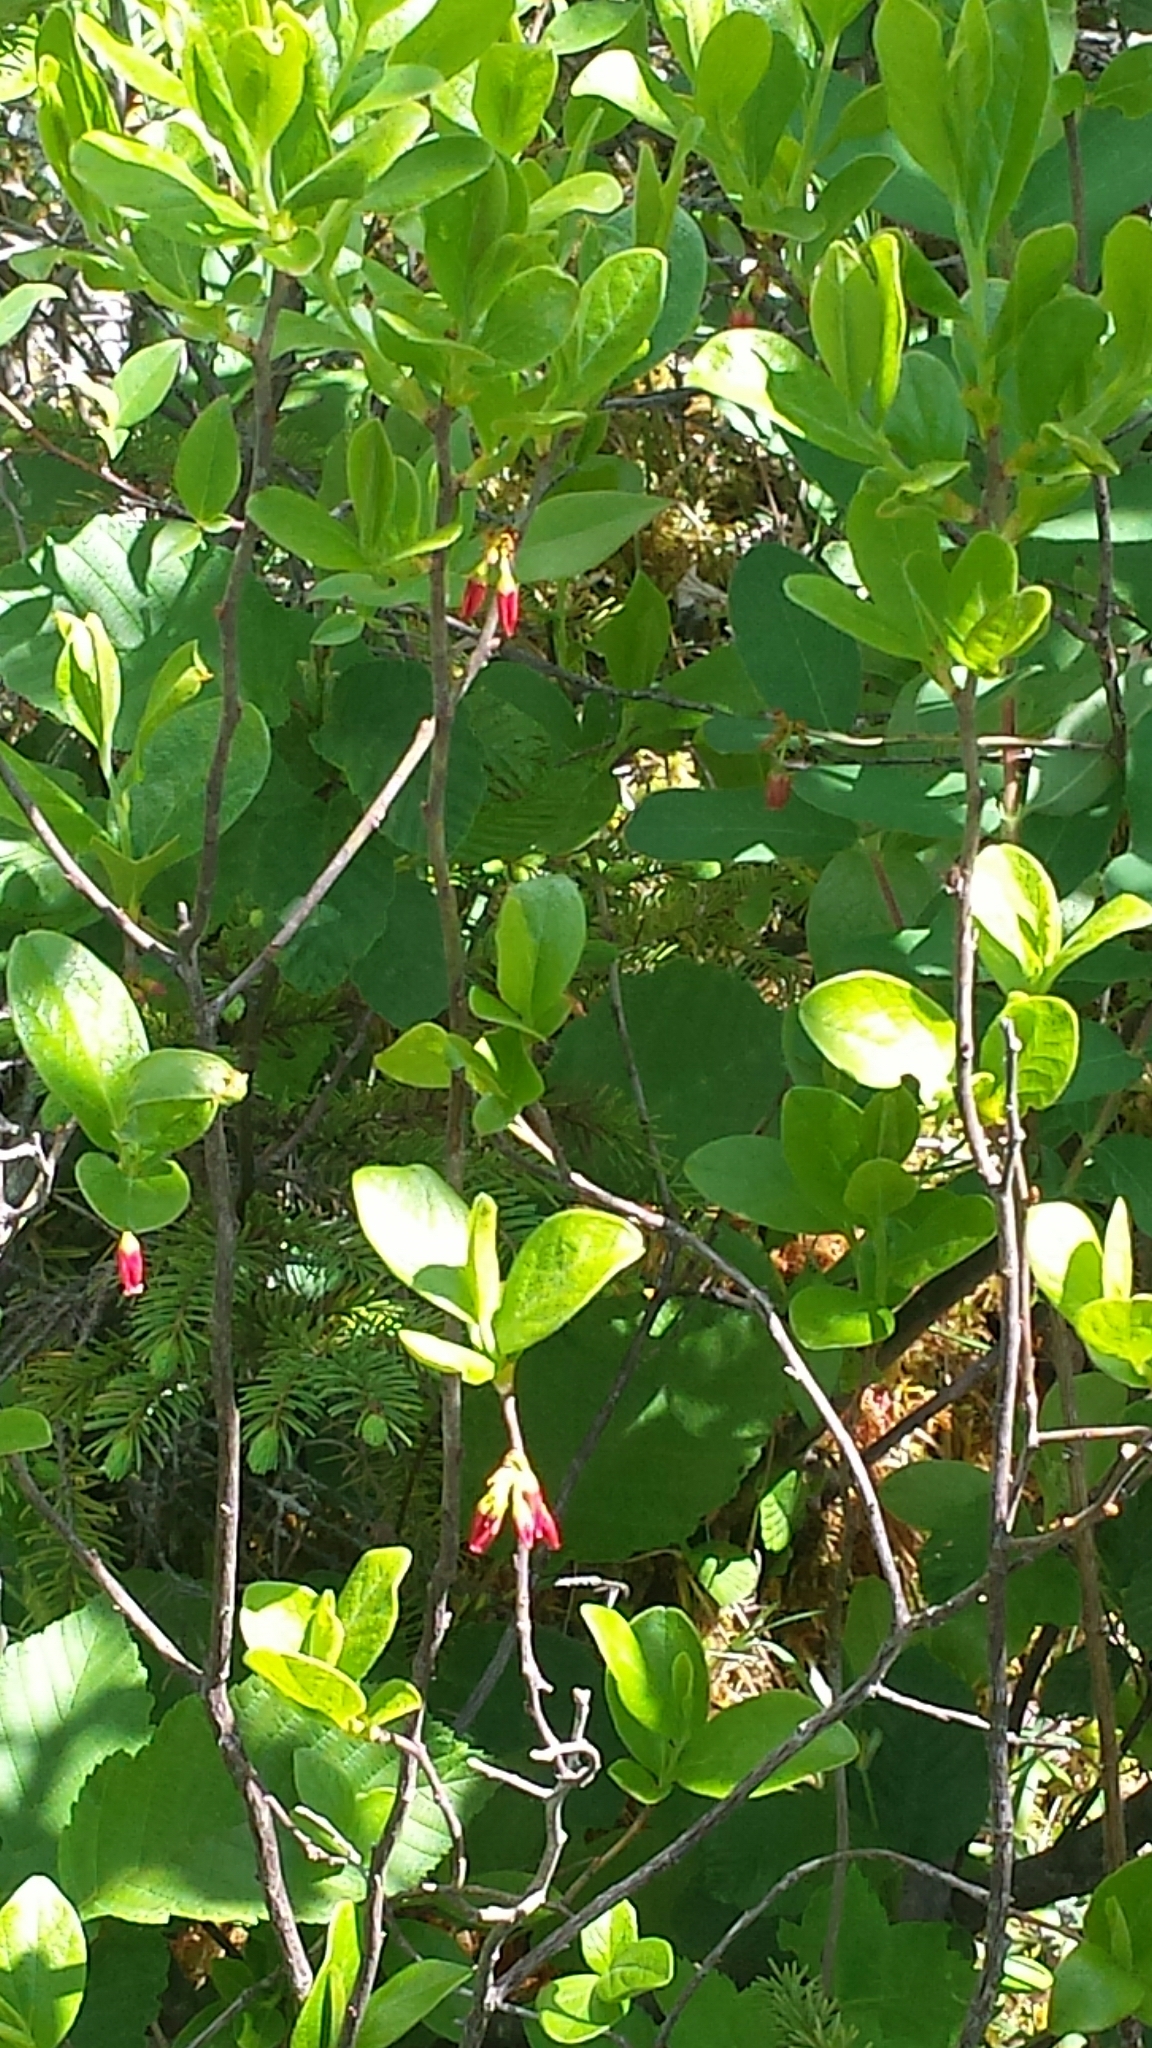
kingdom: Plantae
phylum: Tracheophyta
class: Magnoliopsida
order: Ericales
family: Ericaceae
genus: Gaylussacia
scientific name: Gaylussacia baccata
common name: Black huckleberry
